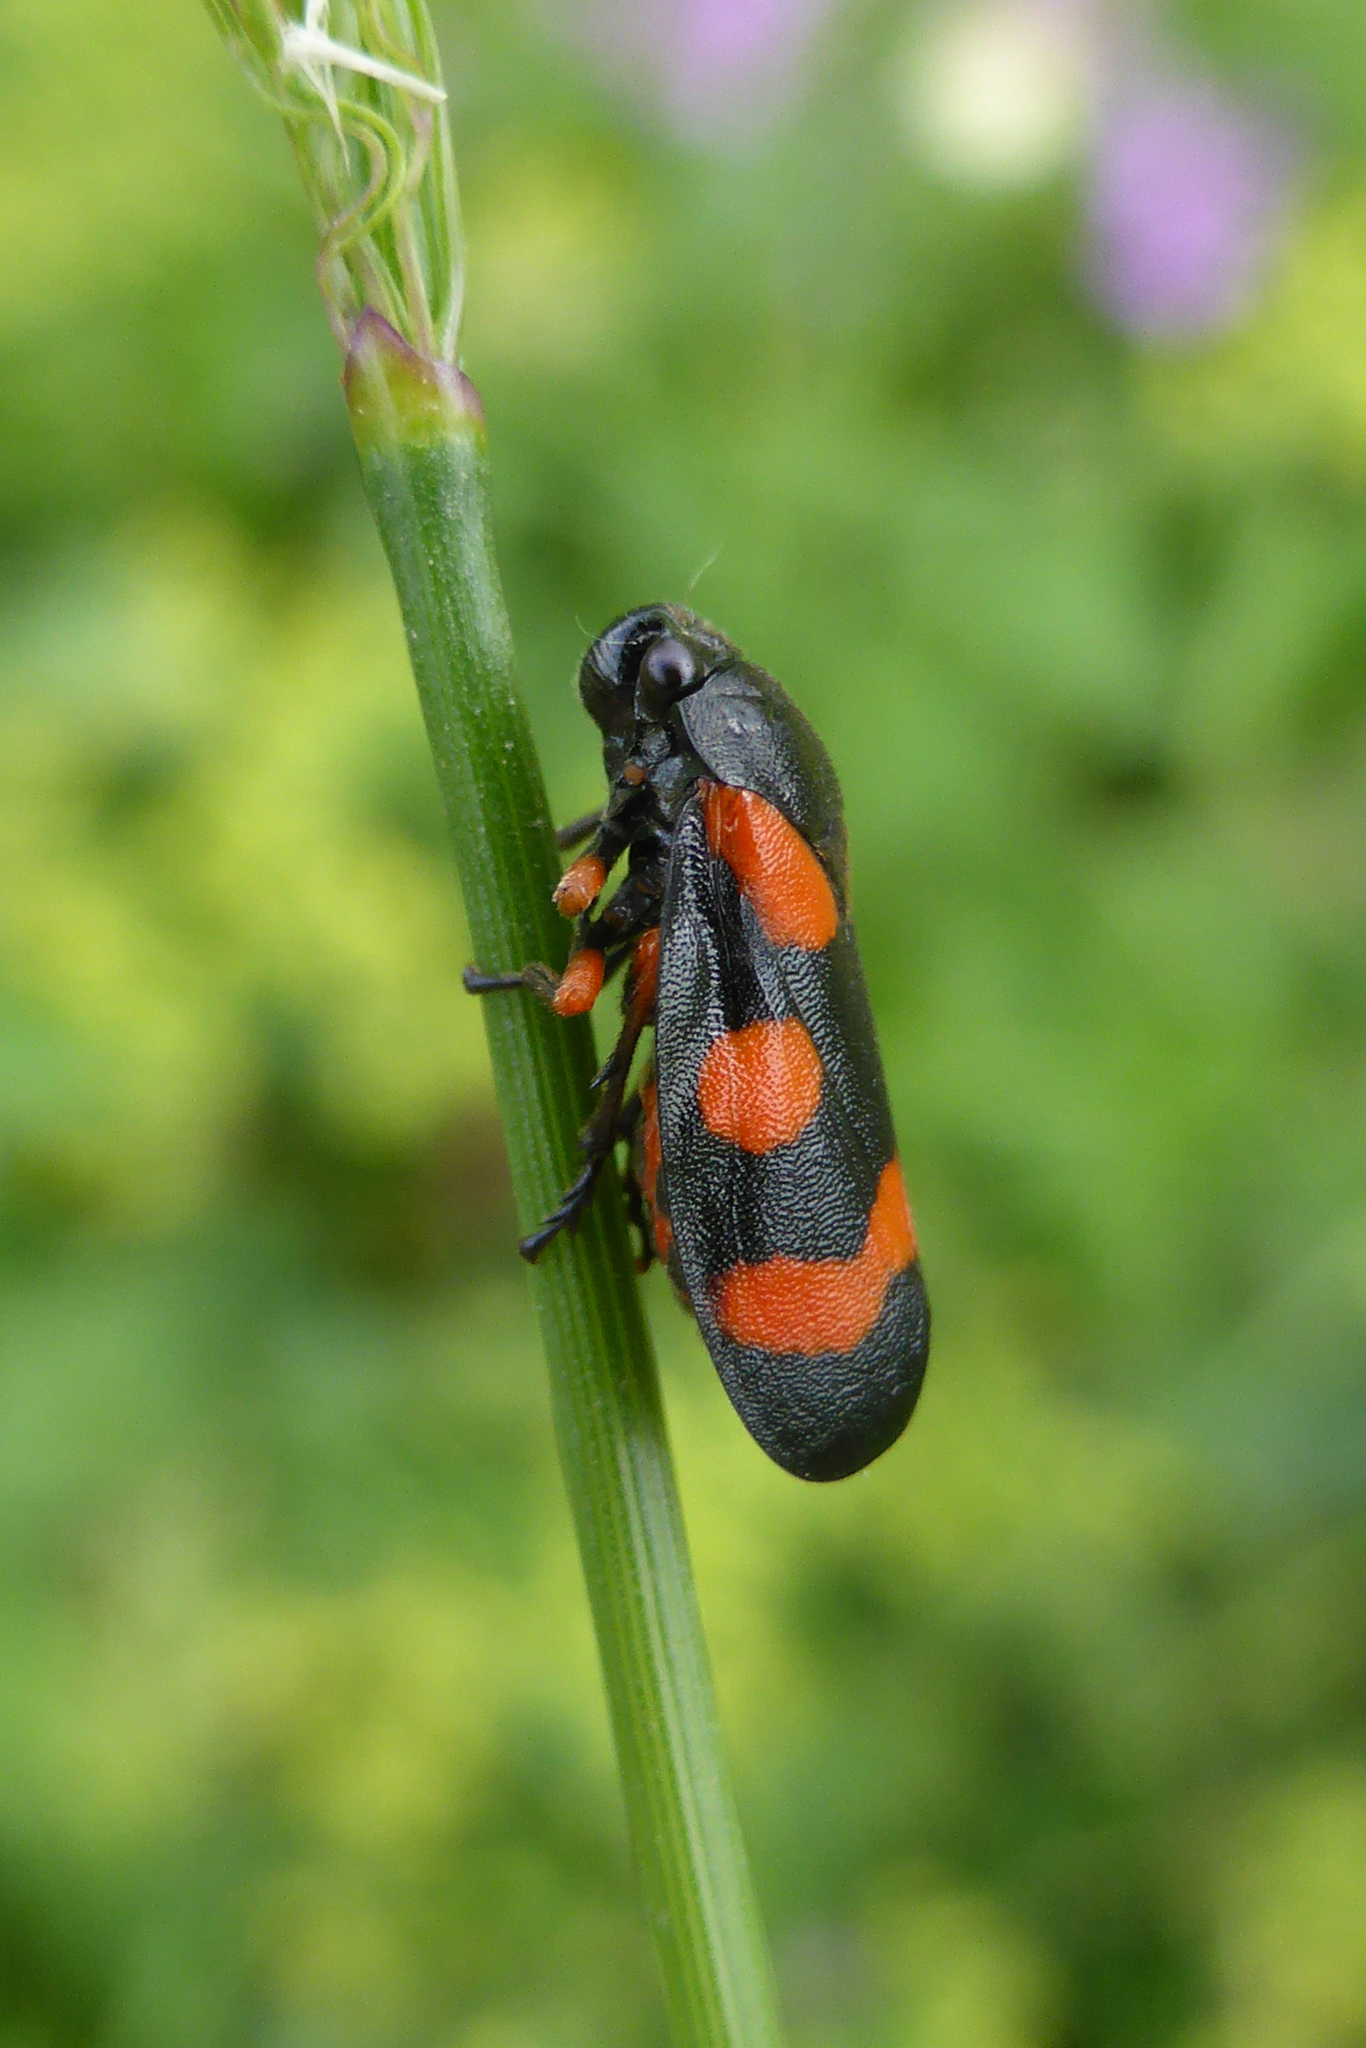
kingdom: Animalia
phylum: Arthropoda
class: Insecta
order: Hemiptera
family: Cercopidae
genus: Cercopis
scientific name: Cercopis intermedia
